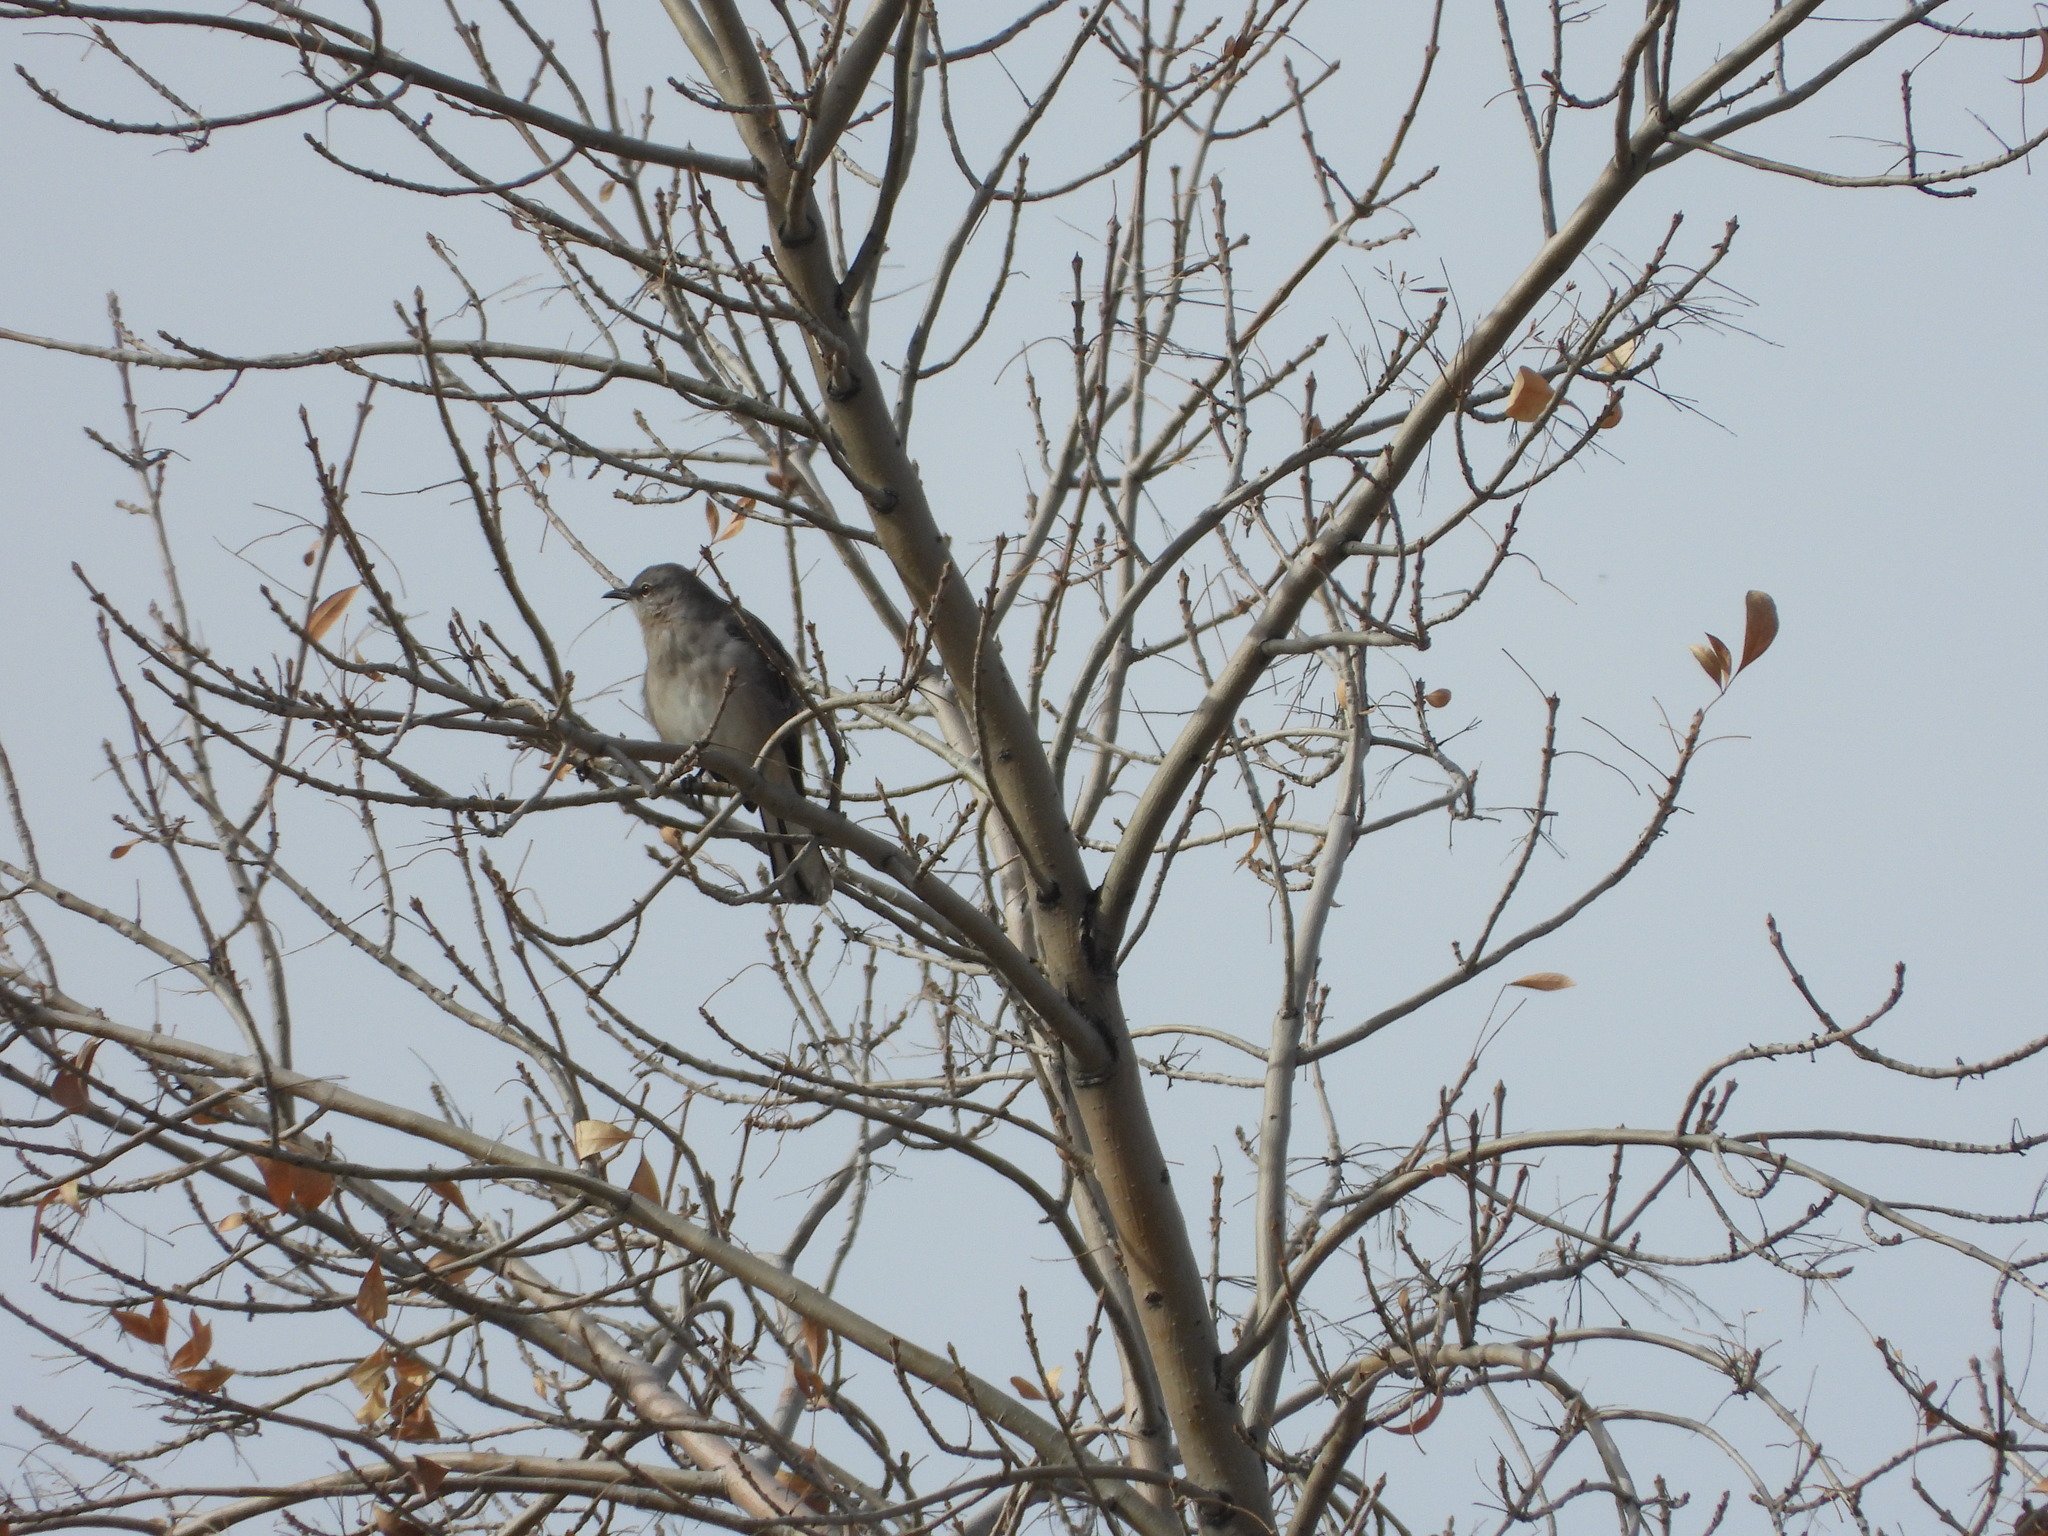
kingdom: Animalia
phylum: Chordata
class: Aves
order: Passeriformes
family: Mimidae
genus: Mimus
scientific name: Mimus polyglottos
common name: Northern mockingbird
